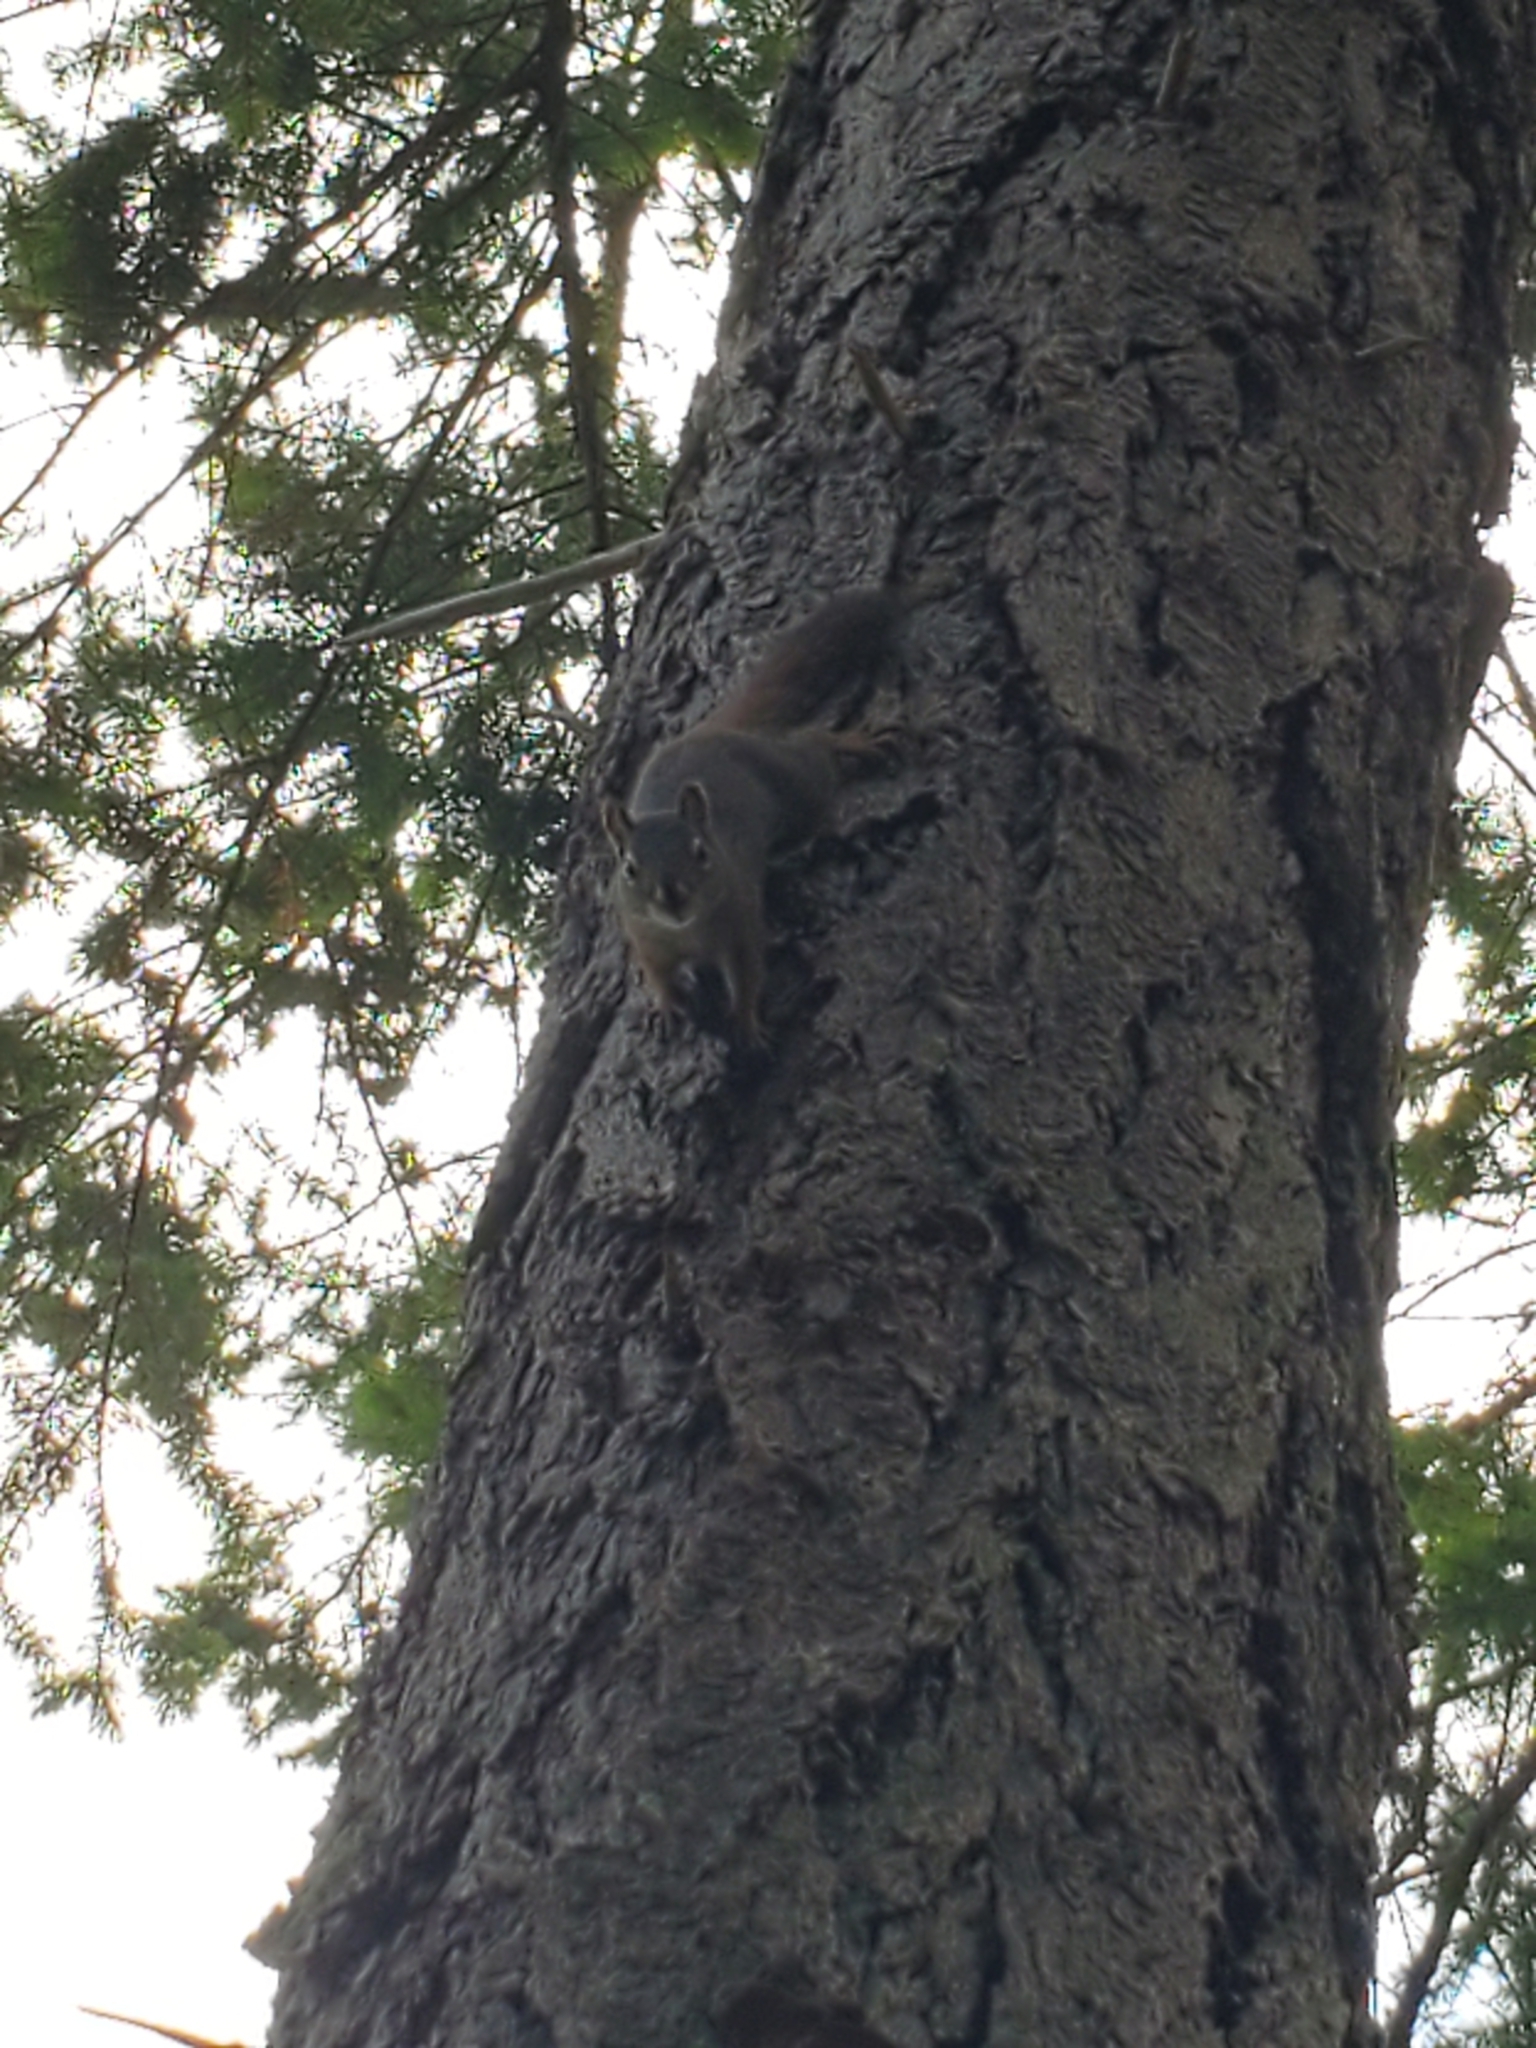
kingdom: Animalia
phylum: Chordata
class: Mammalia
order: Rodentia
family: Sciuridae
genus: Tamiasciurus
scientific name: Tamiasciurus hudsonicus
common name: Red squirrel
